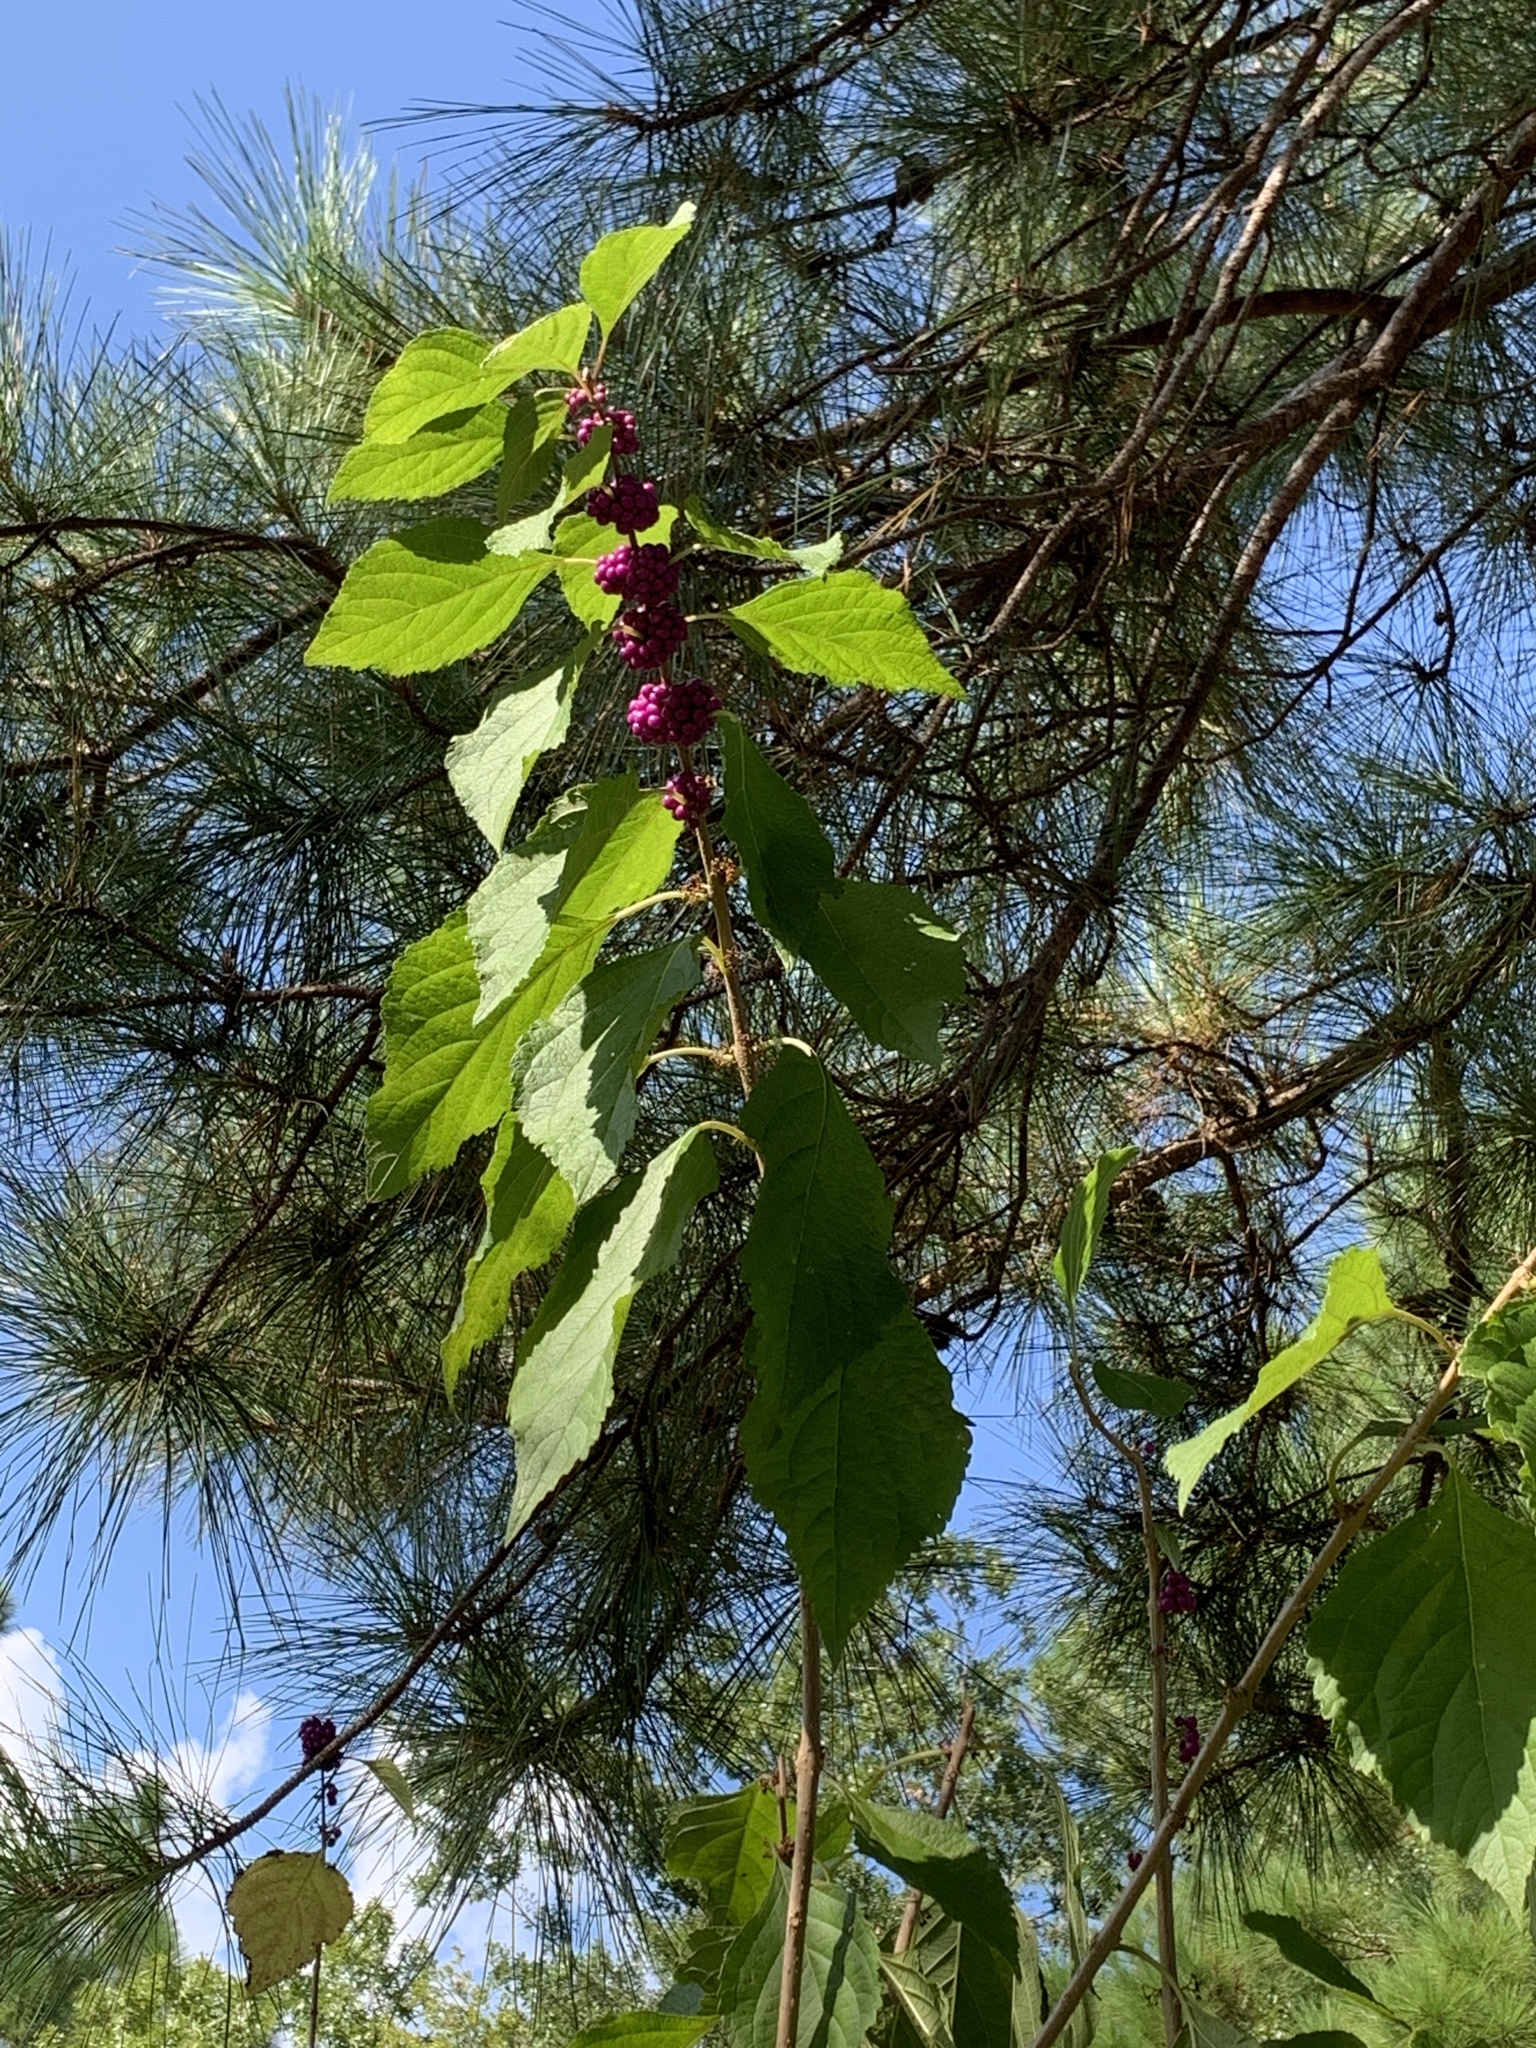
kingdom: Plantae
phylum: Tracheophyta
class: Magnoliopsida
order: Lamiales
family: Lamiaceae
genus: Callicarpa
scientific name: Callicarpa americana
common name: American beautyberry
